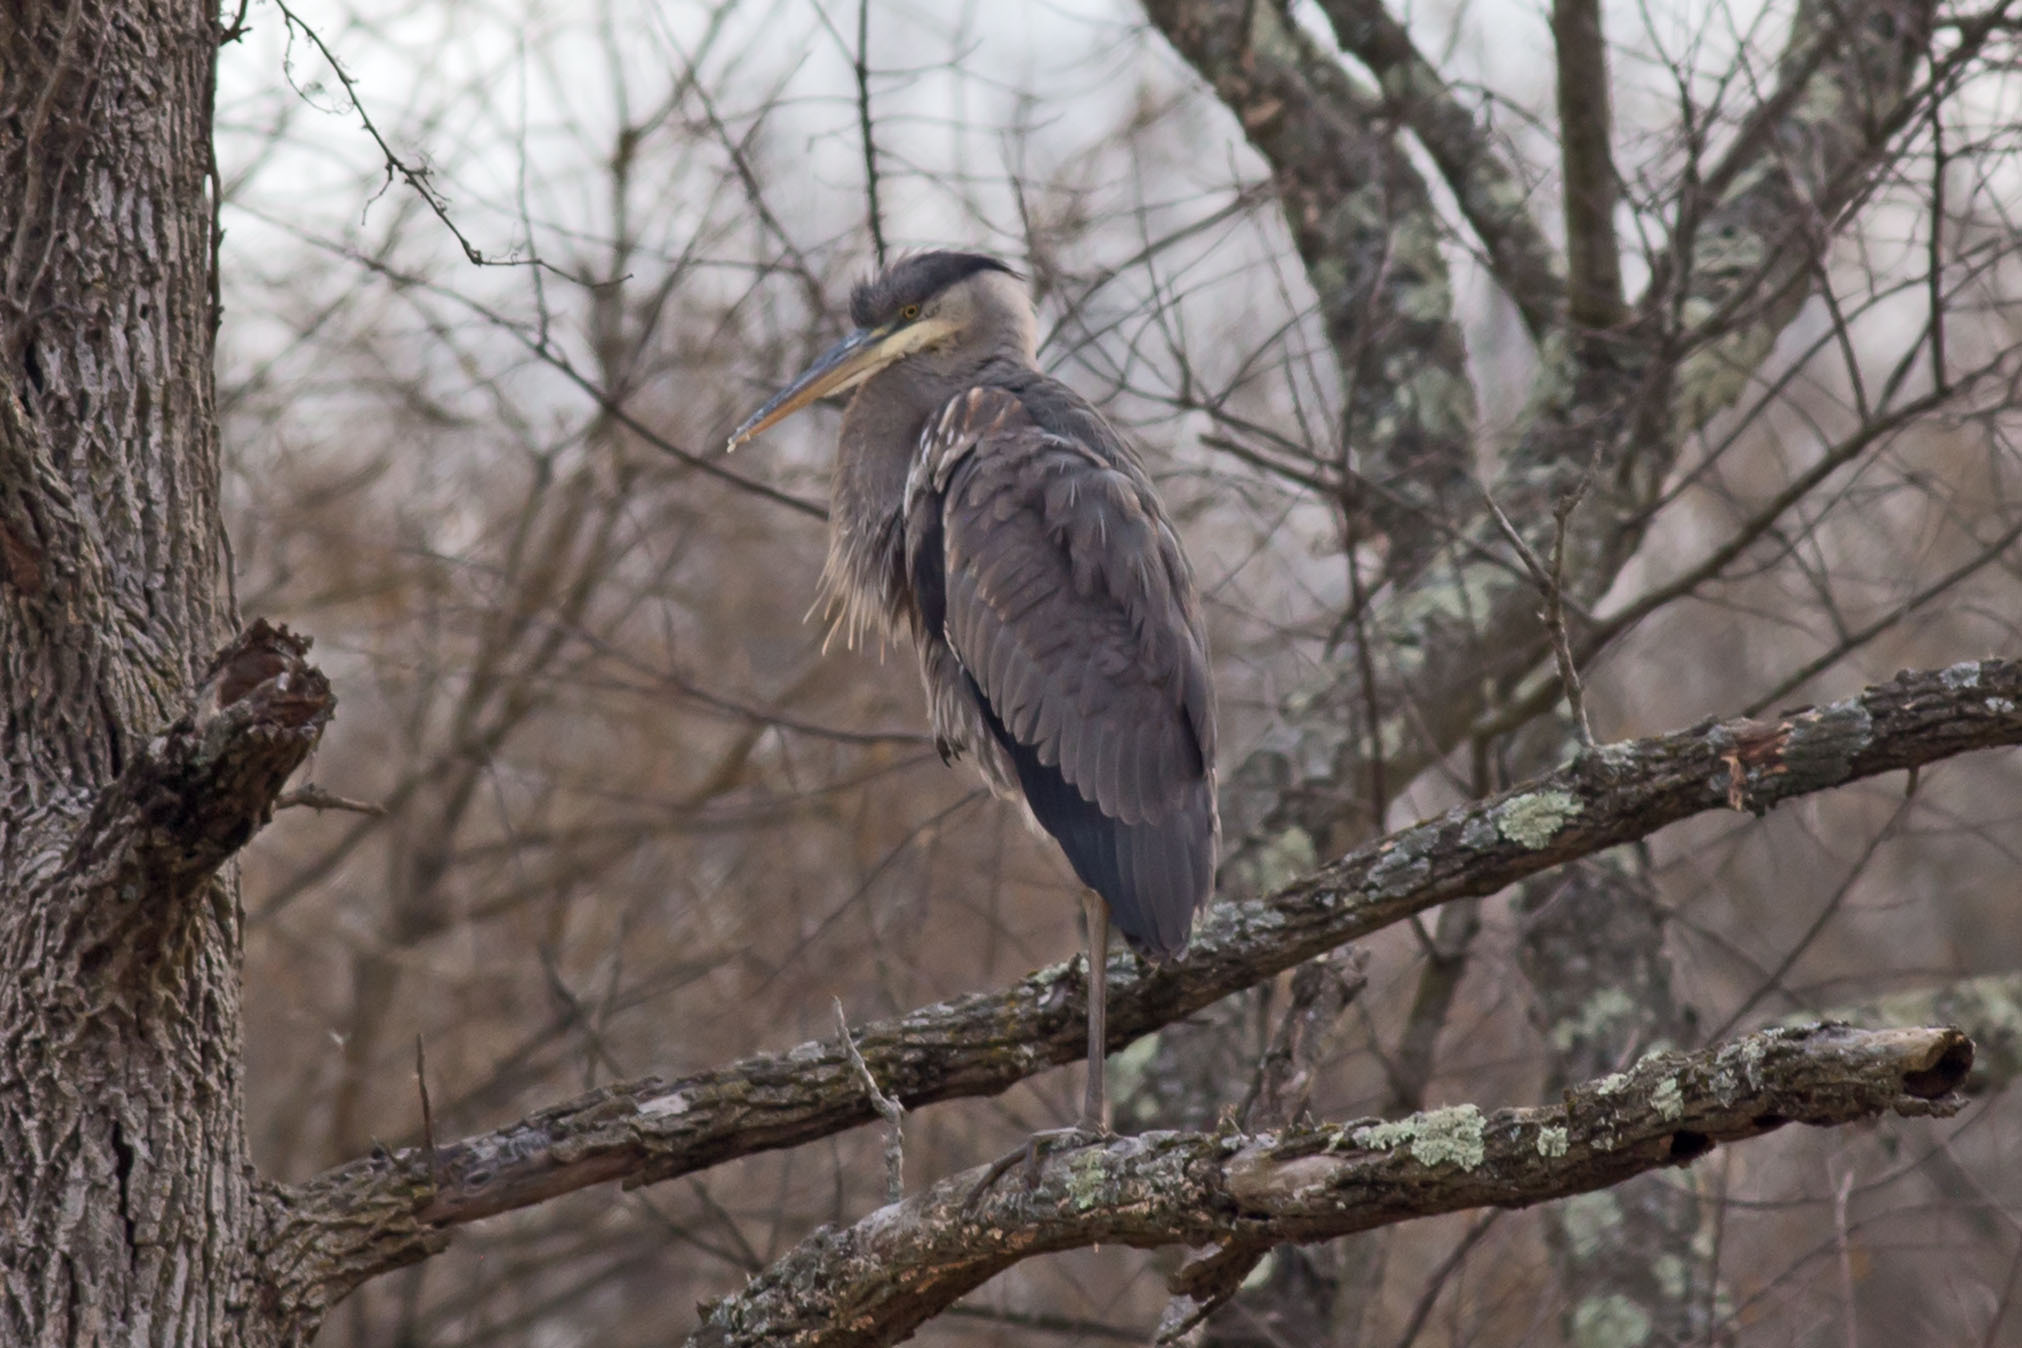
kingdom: Animalia
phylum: Chordata
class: Aves
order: Pelecaniformes
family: Ardeidae
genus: Ardea
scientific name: Ardea herodias
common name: Great blue heron
